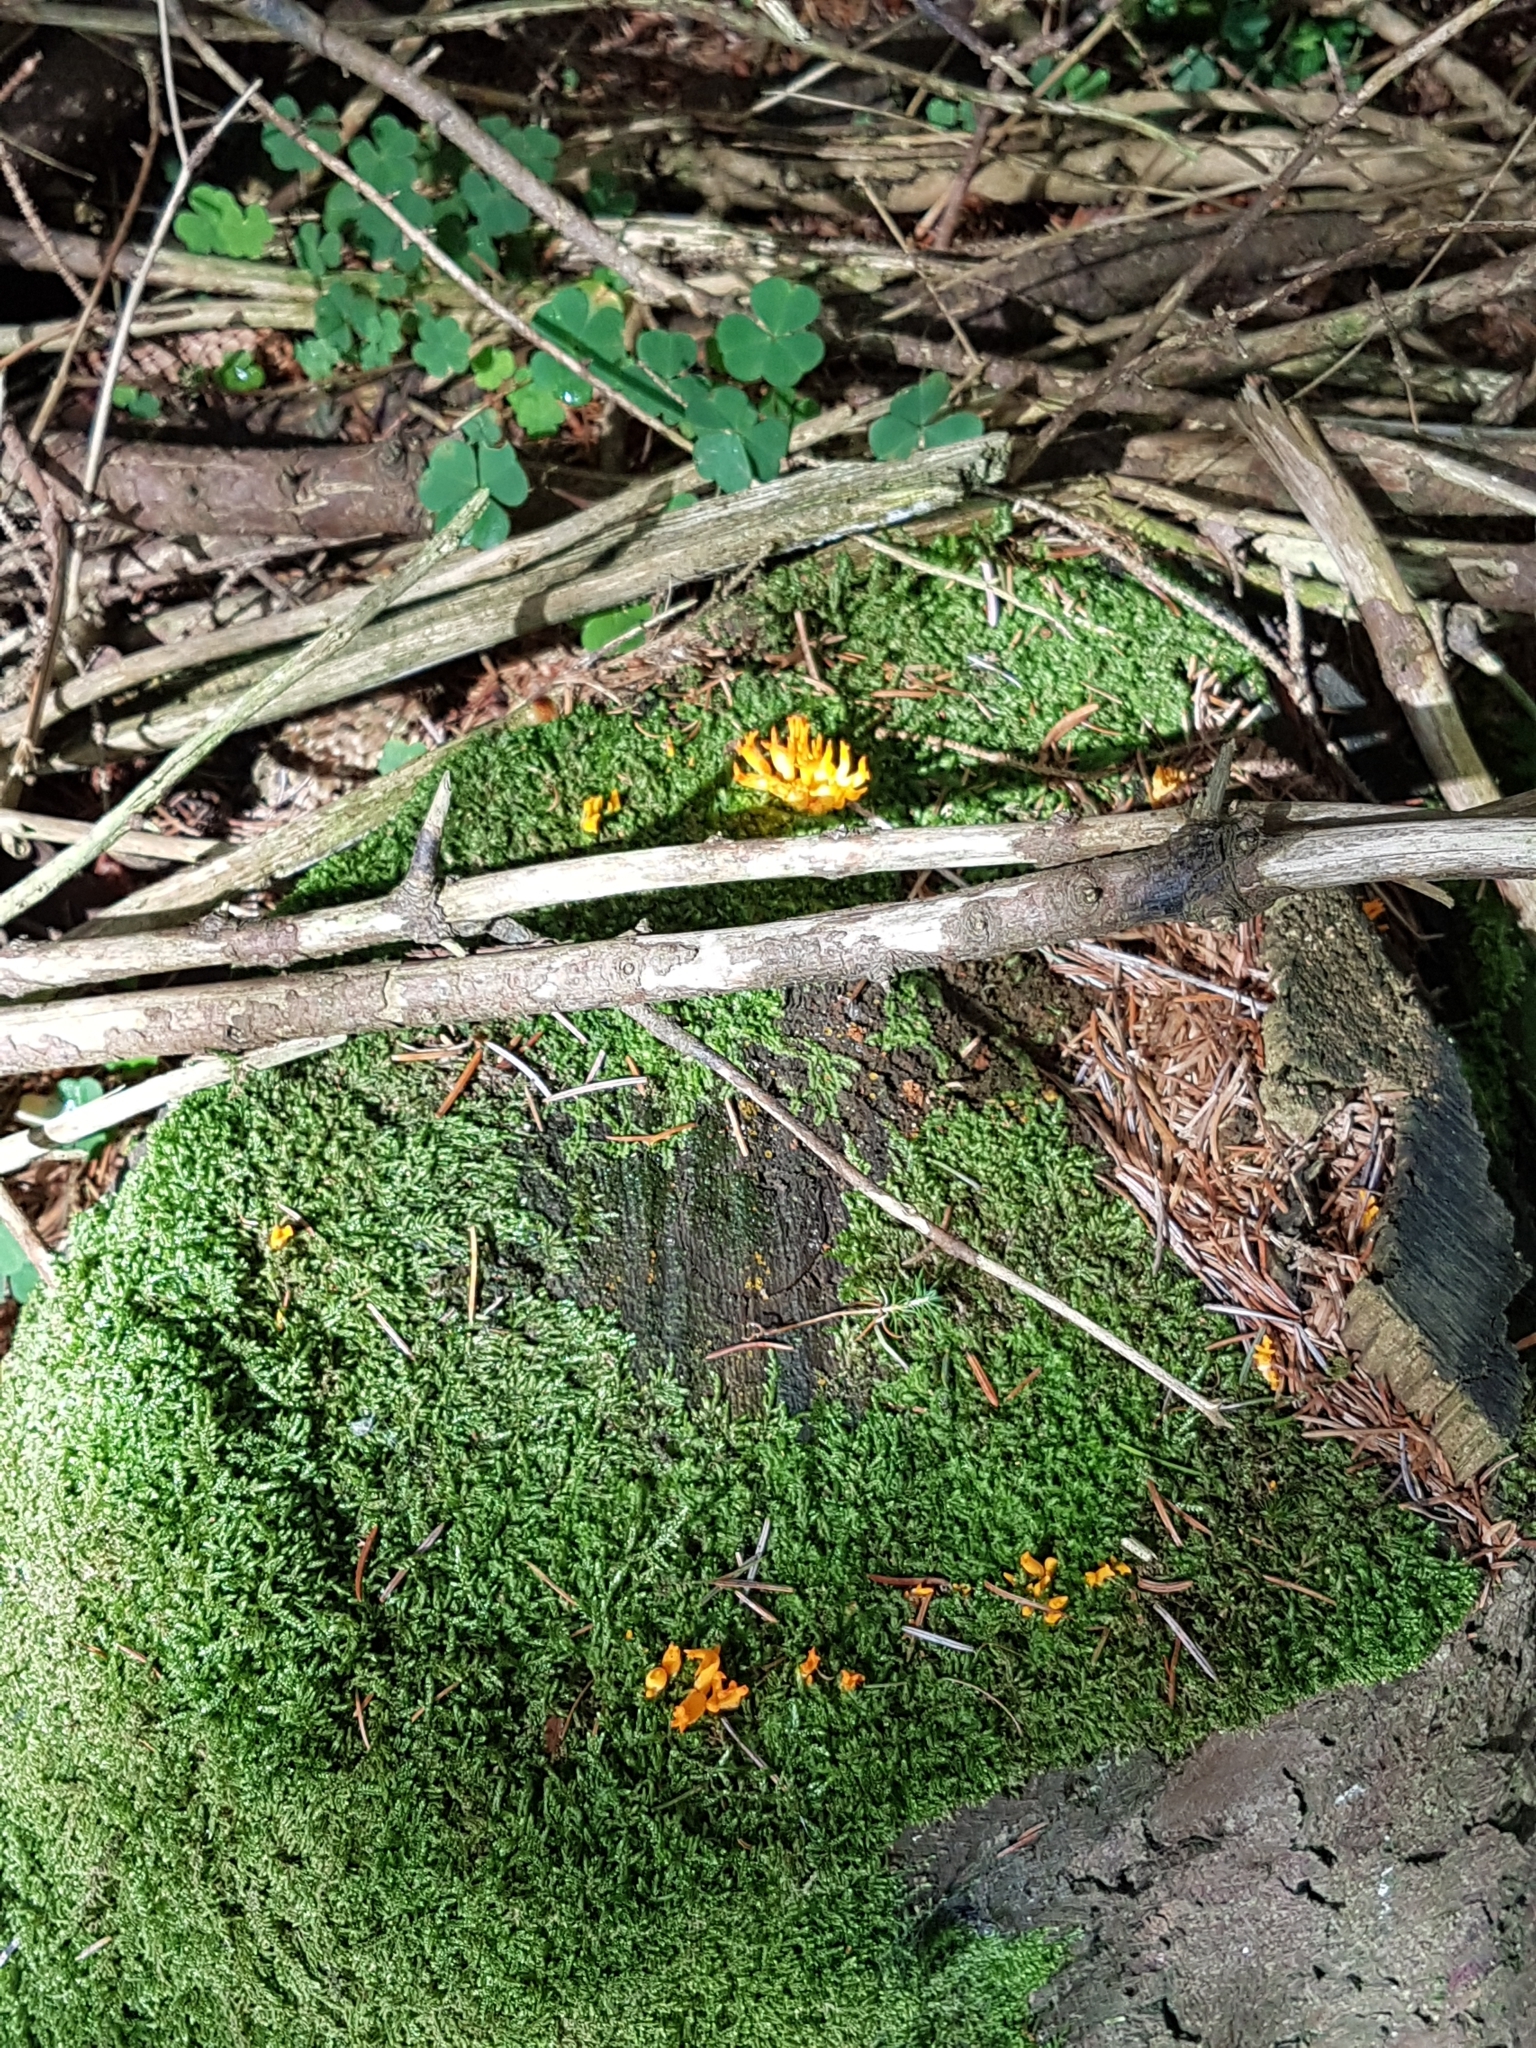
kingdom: Fungi
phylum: Basidiomycota
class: Dacrymycetes
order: Dacrymycetales
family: Dacrymycetaceae
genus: Calocera
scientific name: Calocera viscosa
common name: Yellow stagshorn
